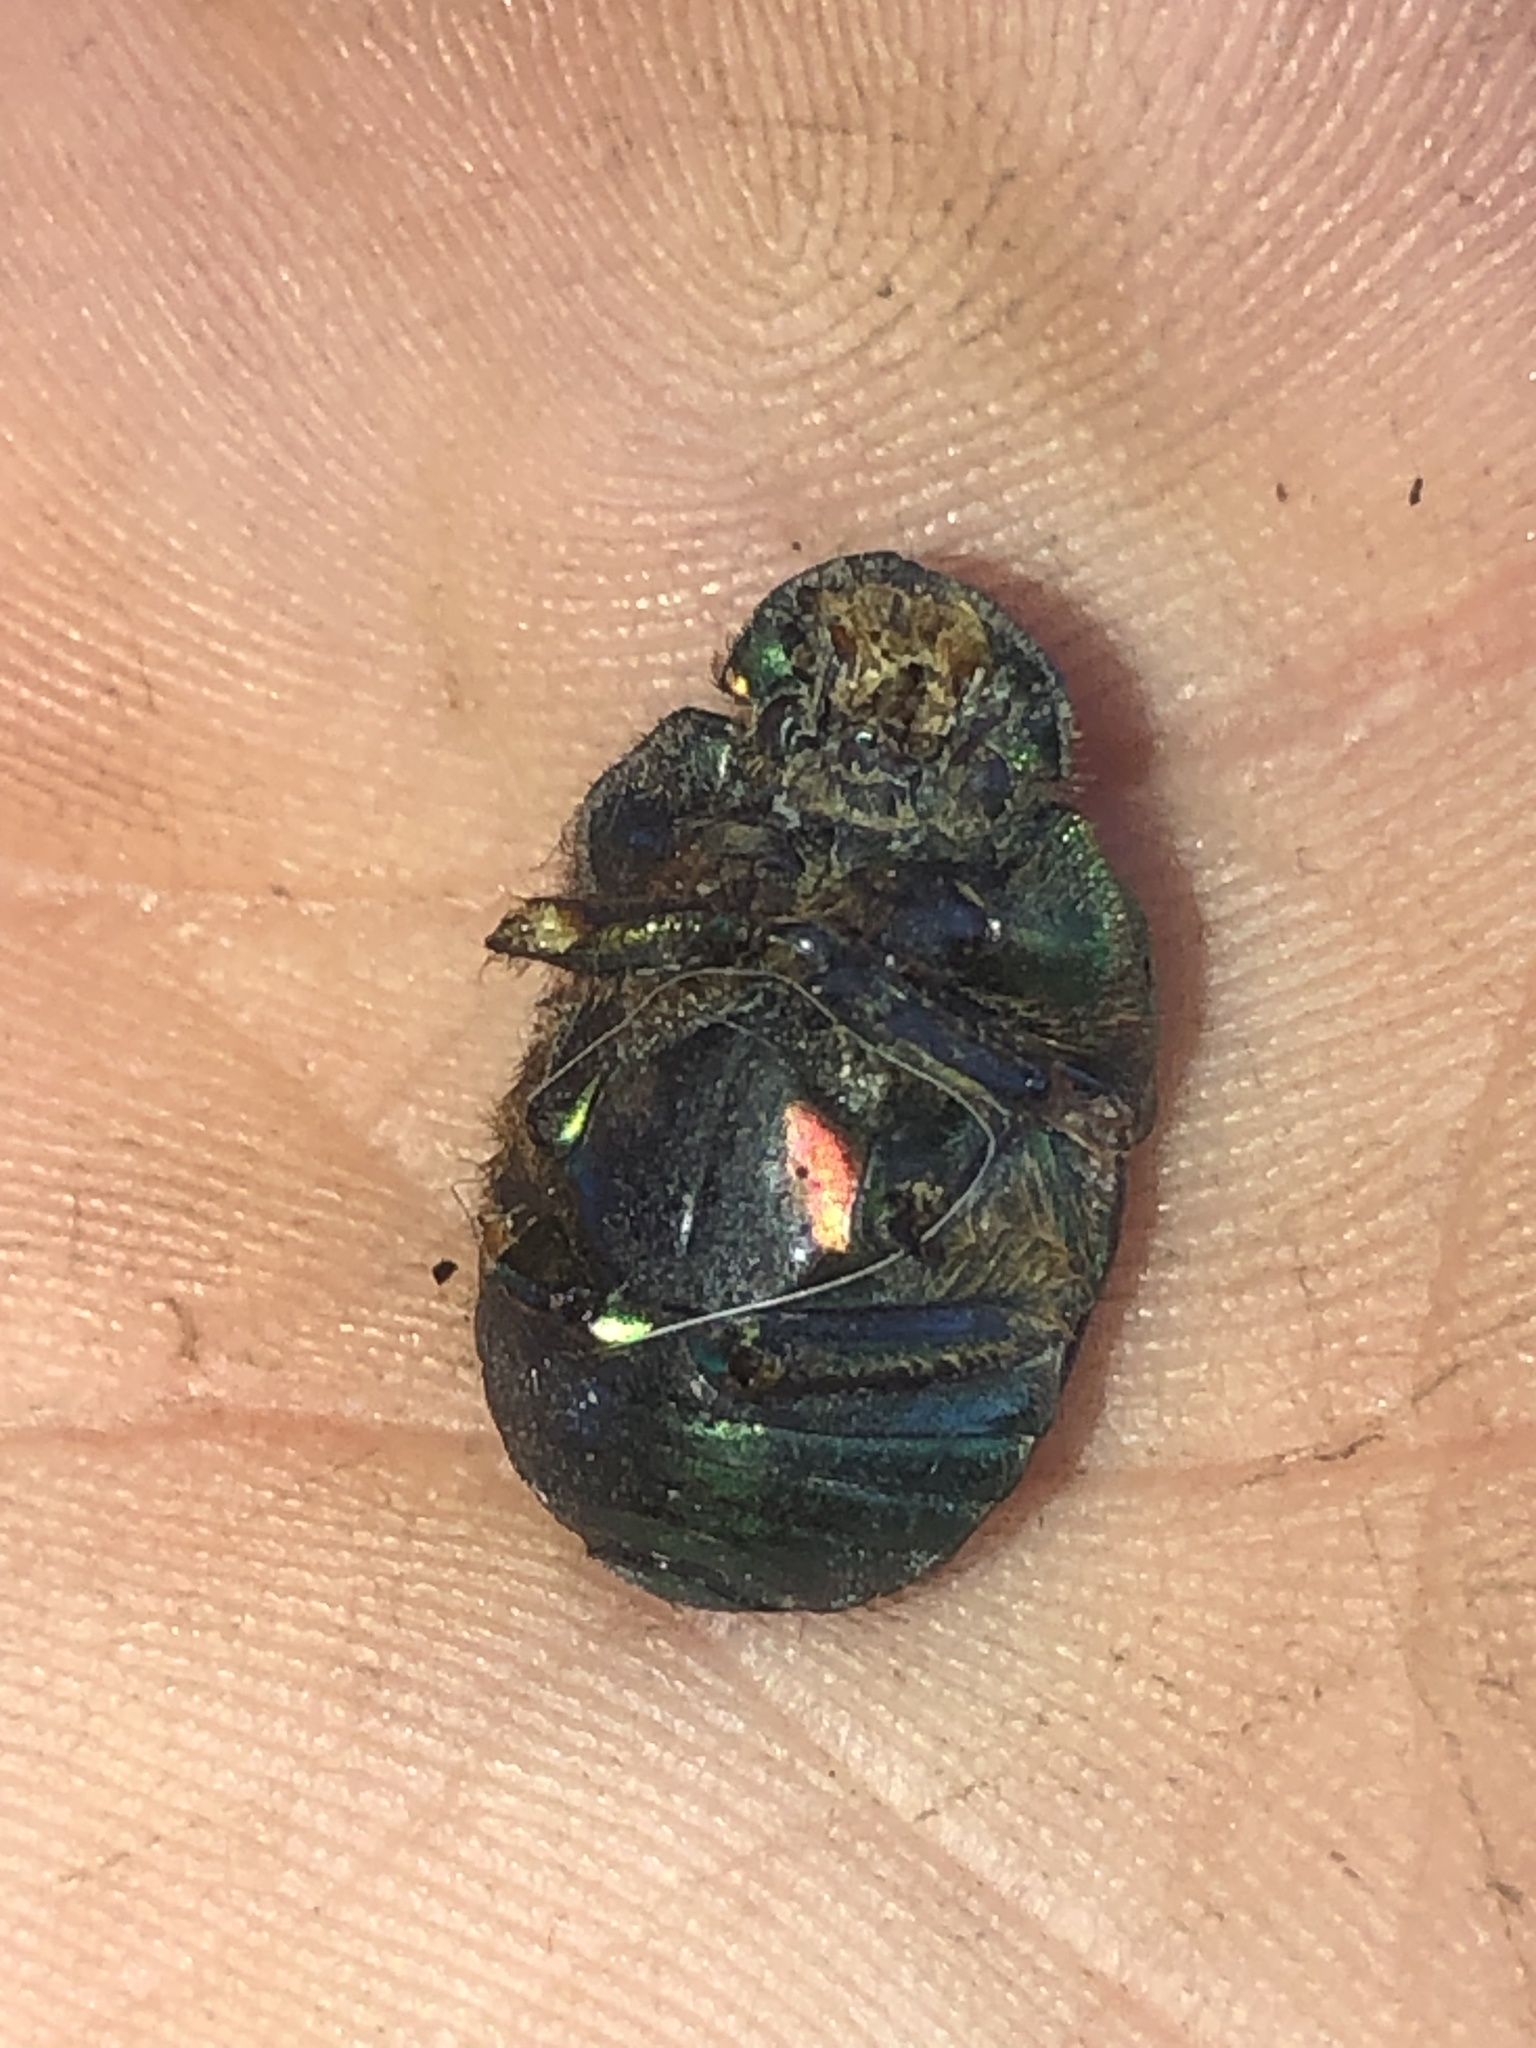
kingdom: Animalia
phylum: Arthropoda
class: Insecta
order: Coleoptera
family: Scarabaeidae
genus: Phanaeus
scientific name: Phanaeus vindex
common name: Rainbow scarab
